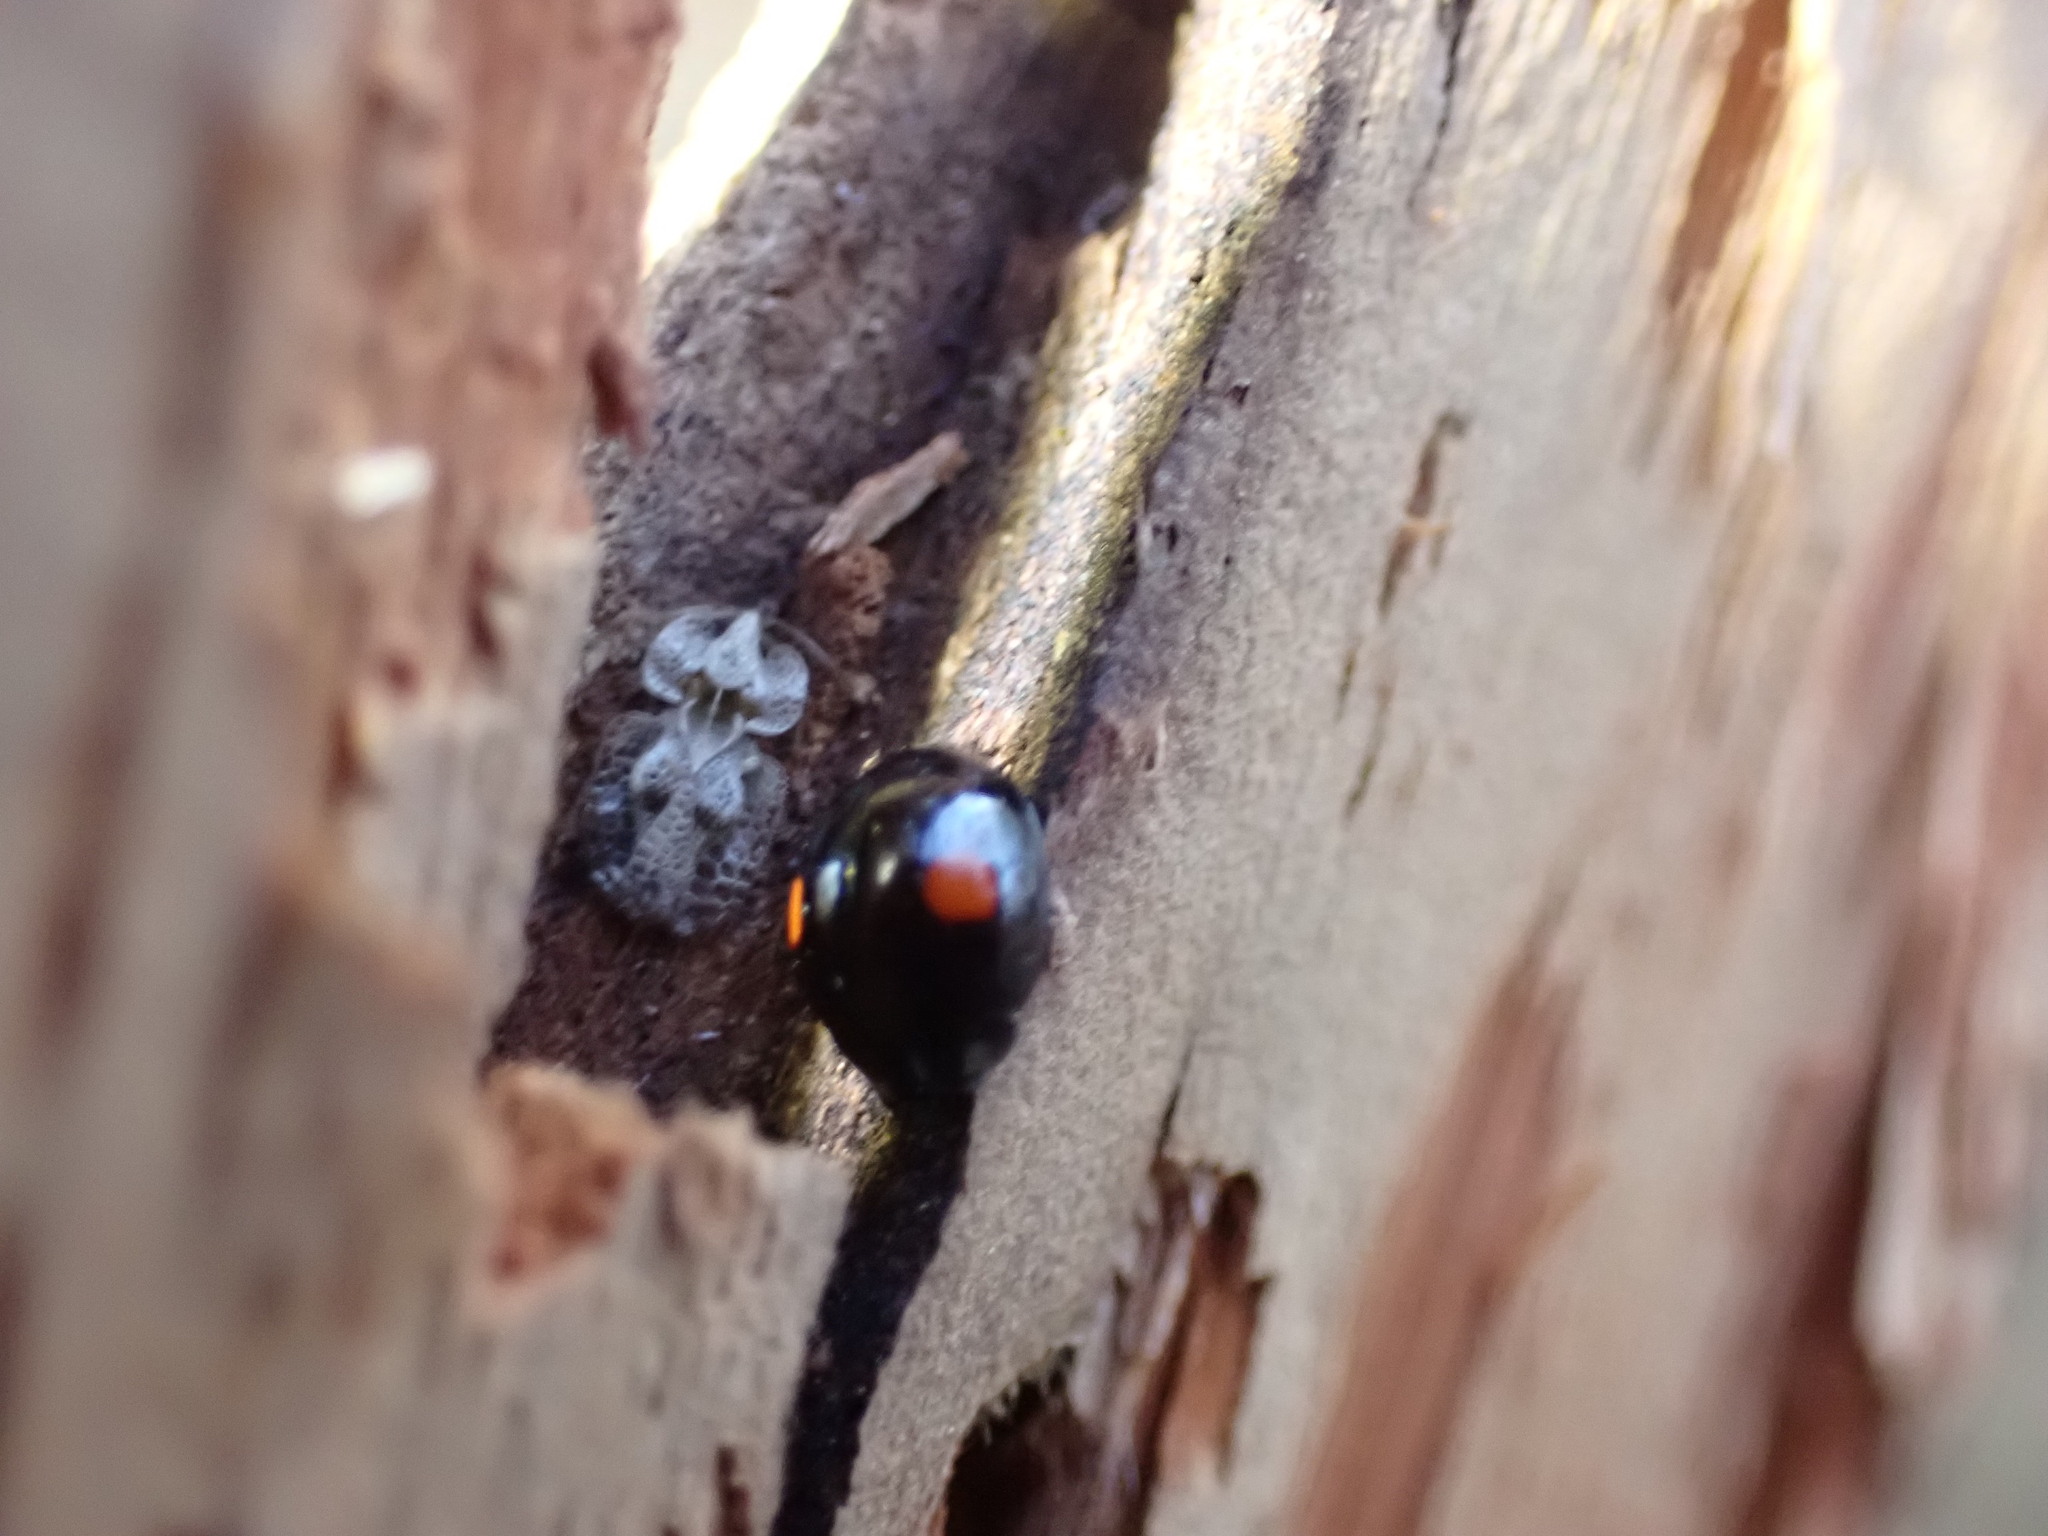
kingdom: Animalia
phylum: Arthropoda
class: Insecta
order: Coleoptera
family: Coccinellidae
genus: Chilocorus
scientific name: Chilocorus stigma
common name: Twicestabbed lady beetle
